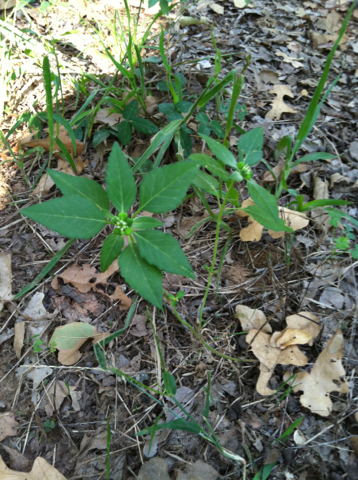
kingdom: Plantae
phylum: Tracheophyta
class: Magnoliopsida
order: Malpighiales
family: Euphorbiaceae
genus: Euphorbia
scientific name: Euphorbia dentata
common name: Dentate spurge
